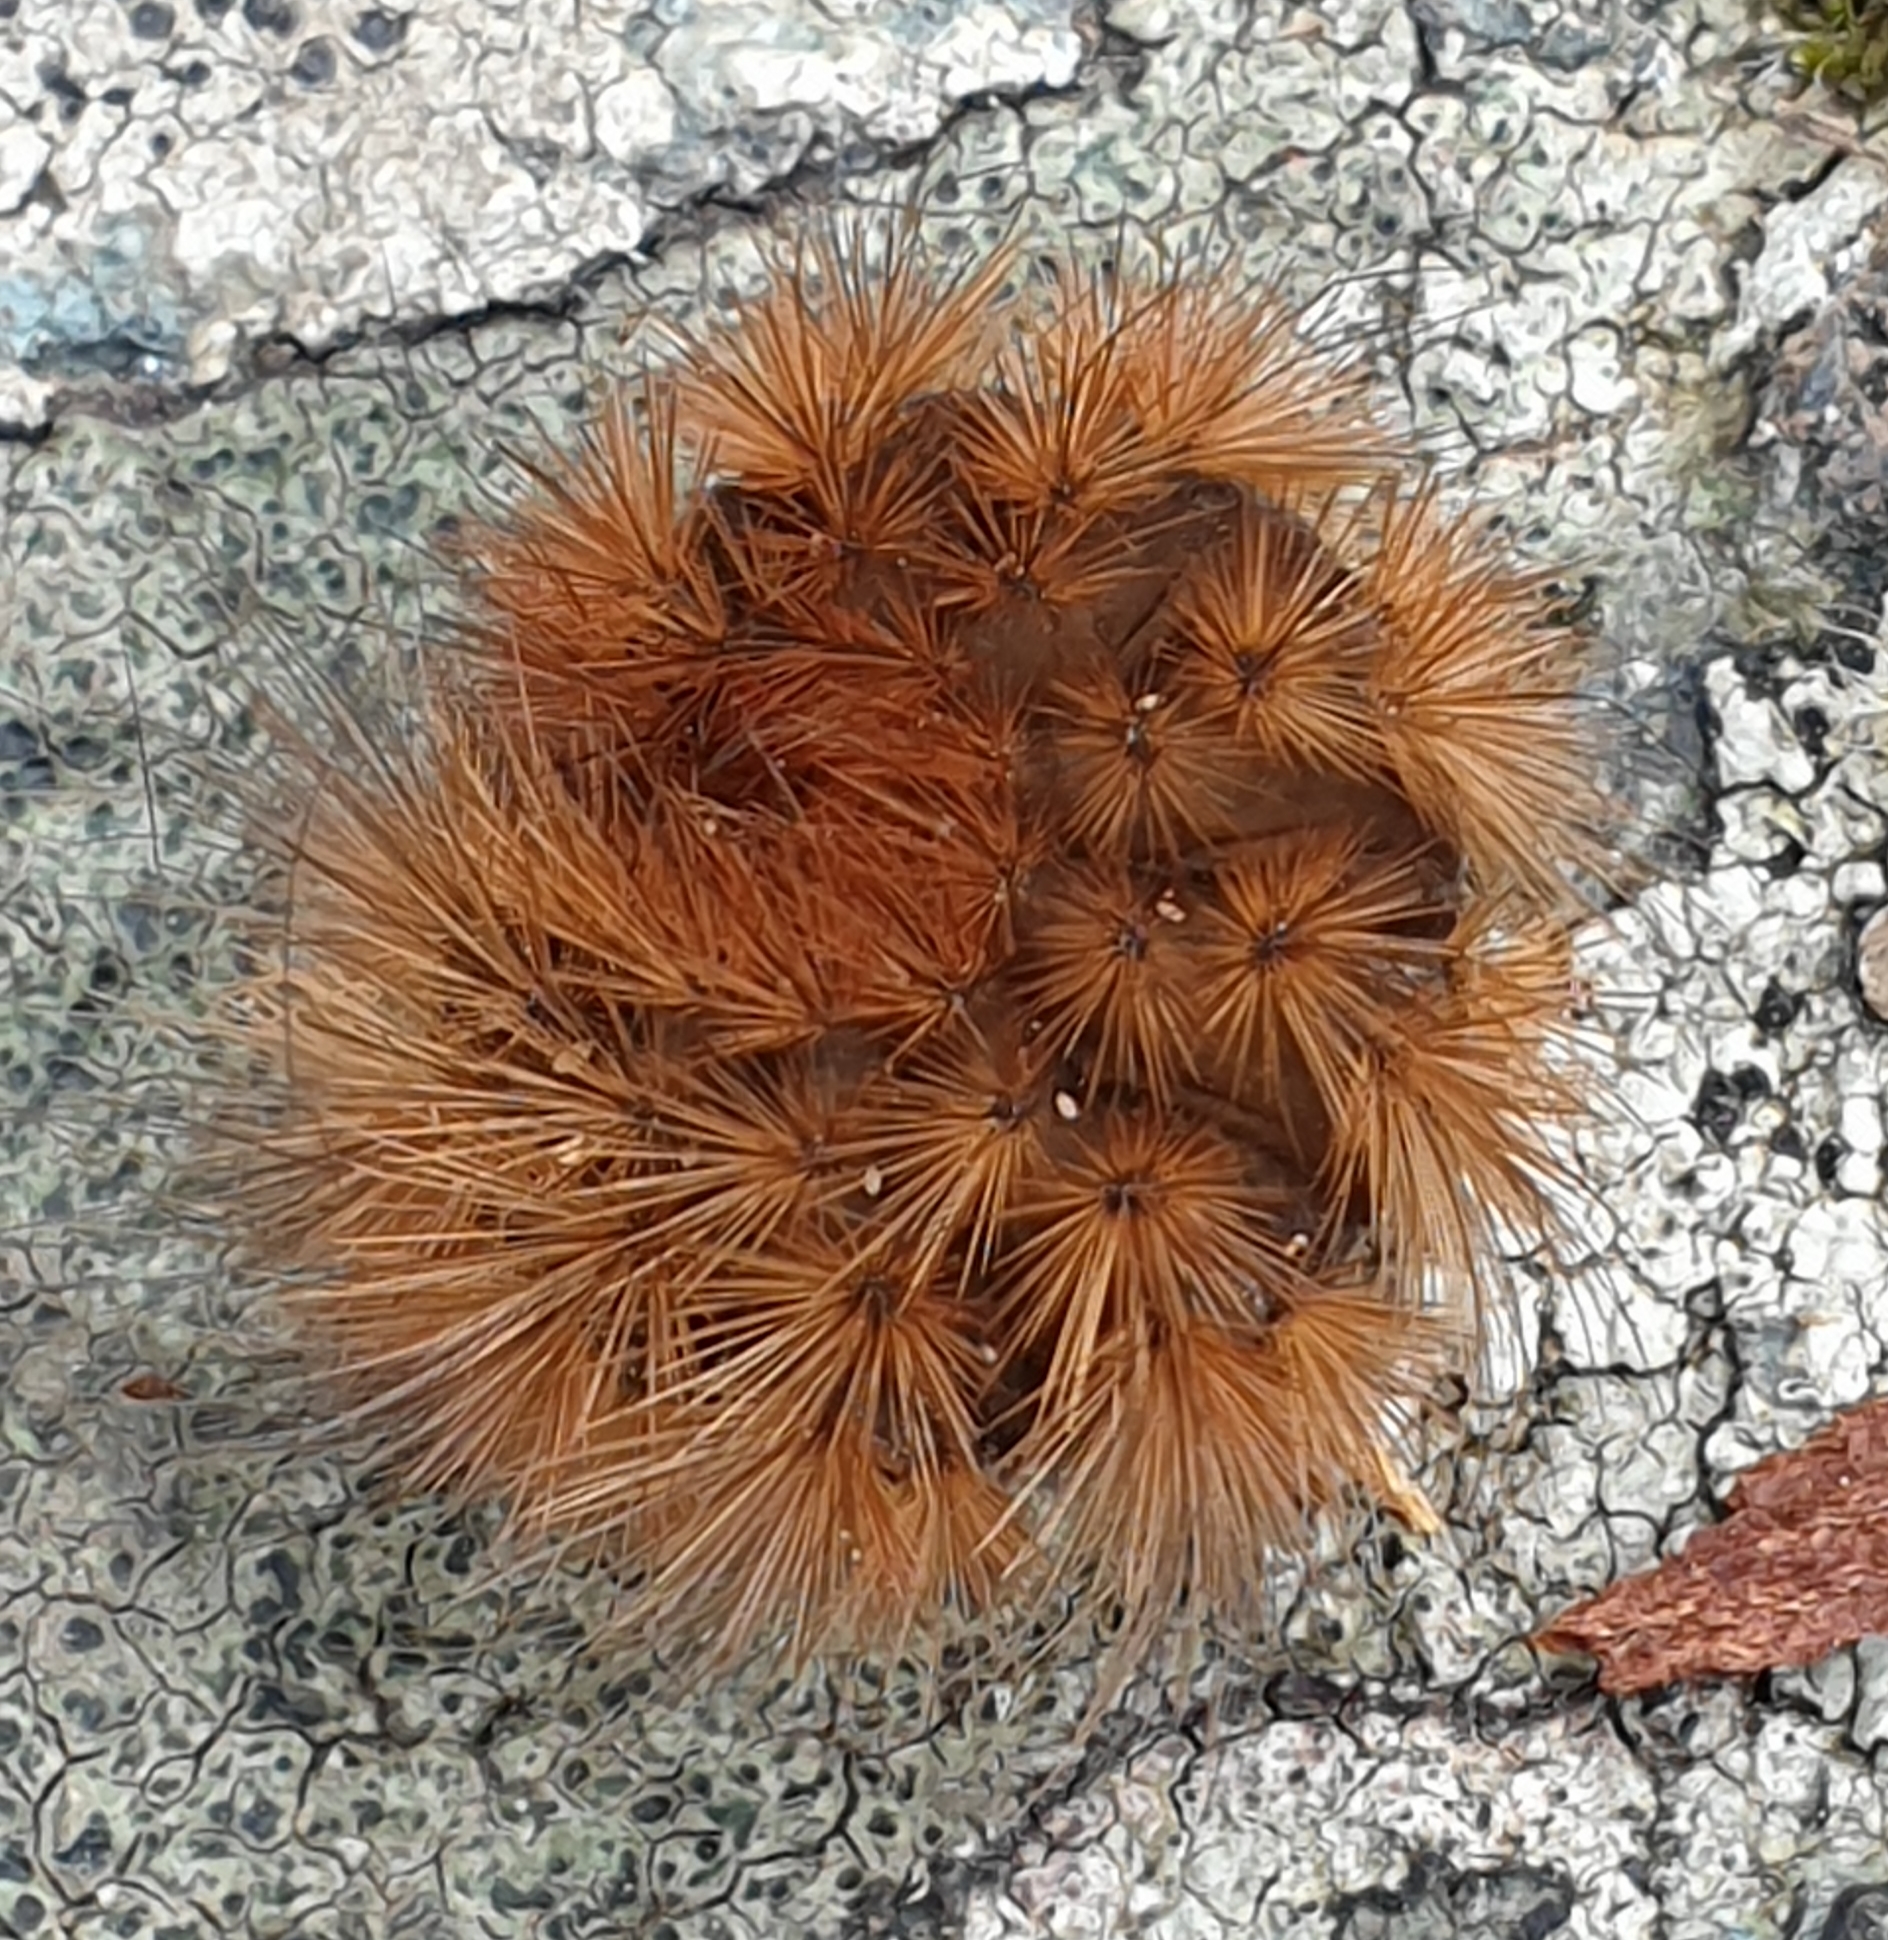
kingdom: Animalia
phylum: Arthropoda
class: Insecta
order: Lepidoptera
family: Erebidae
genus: Arctia
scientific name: Arctia caja
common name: Garden tiger
